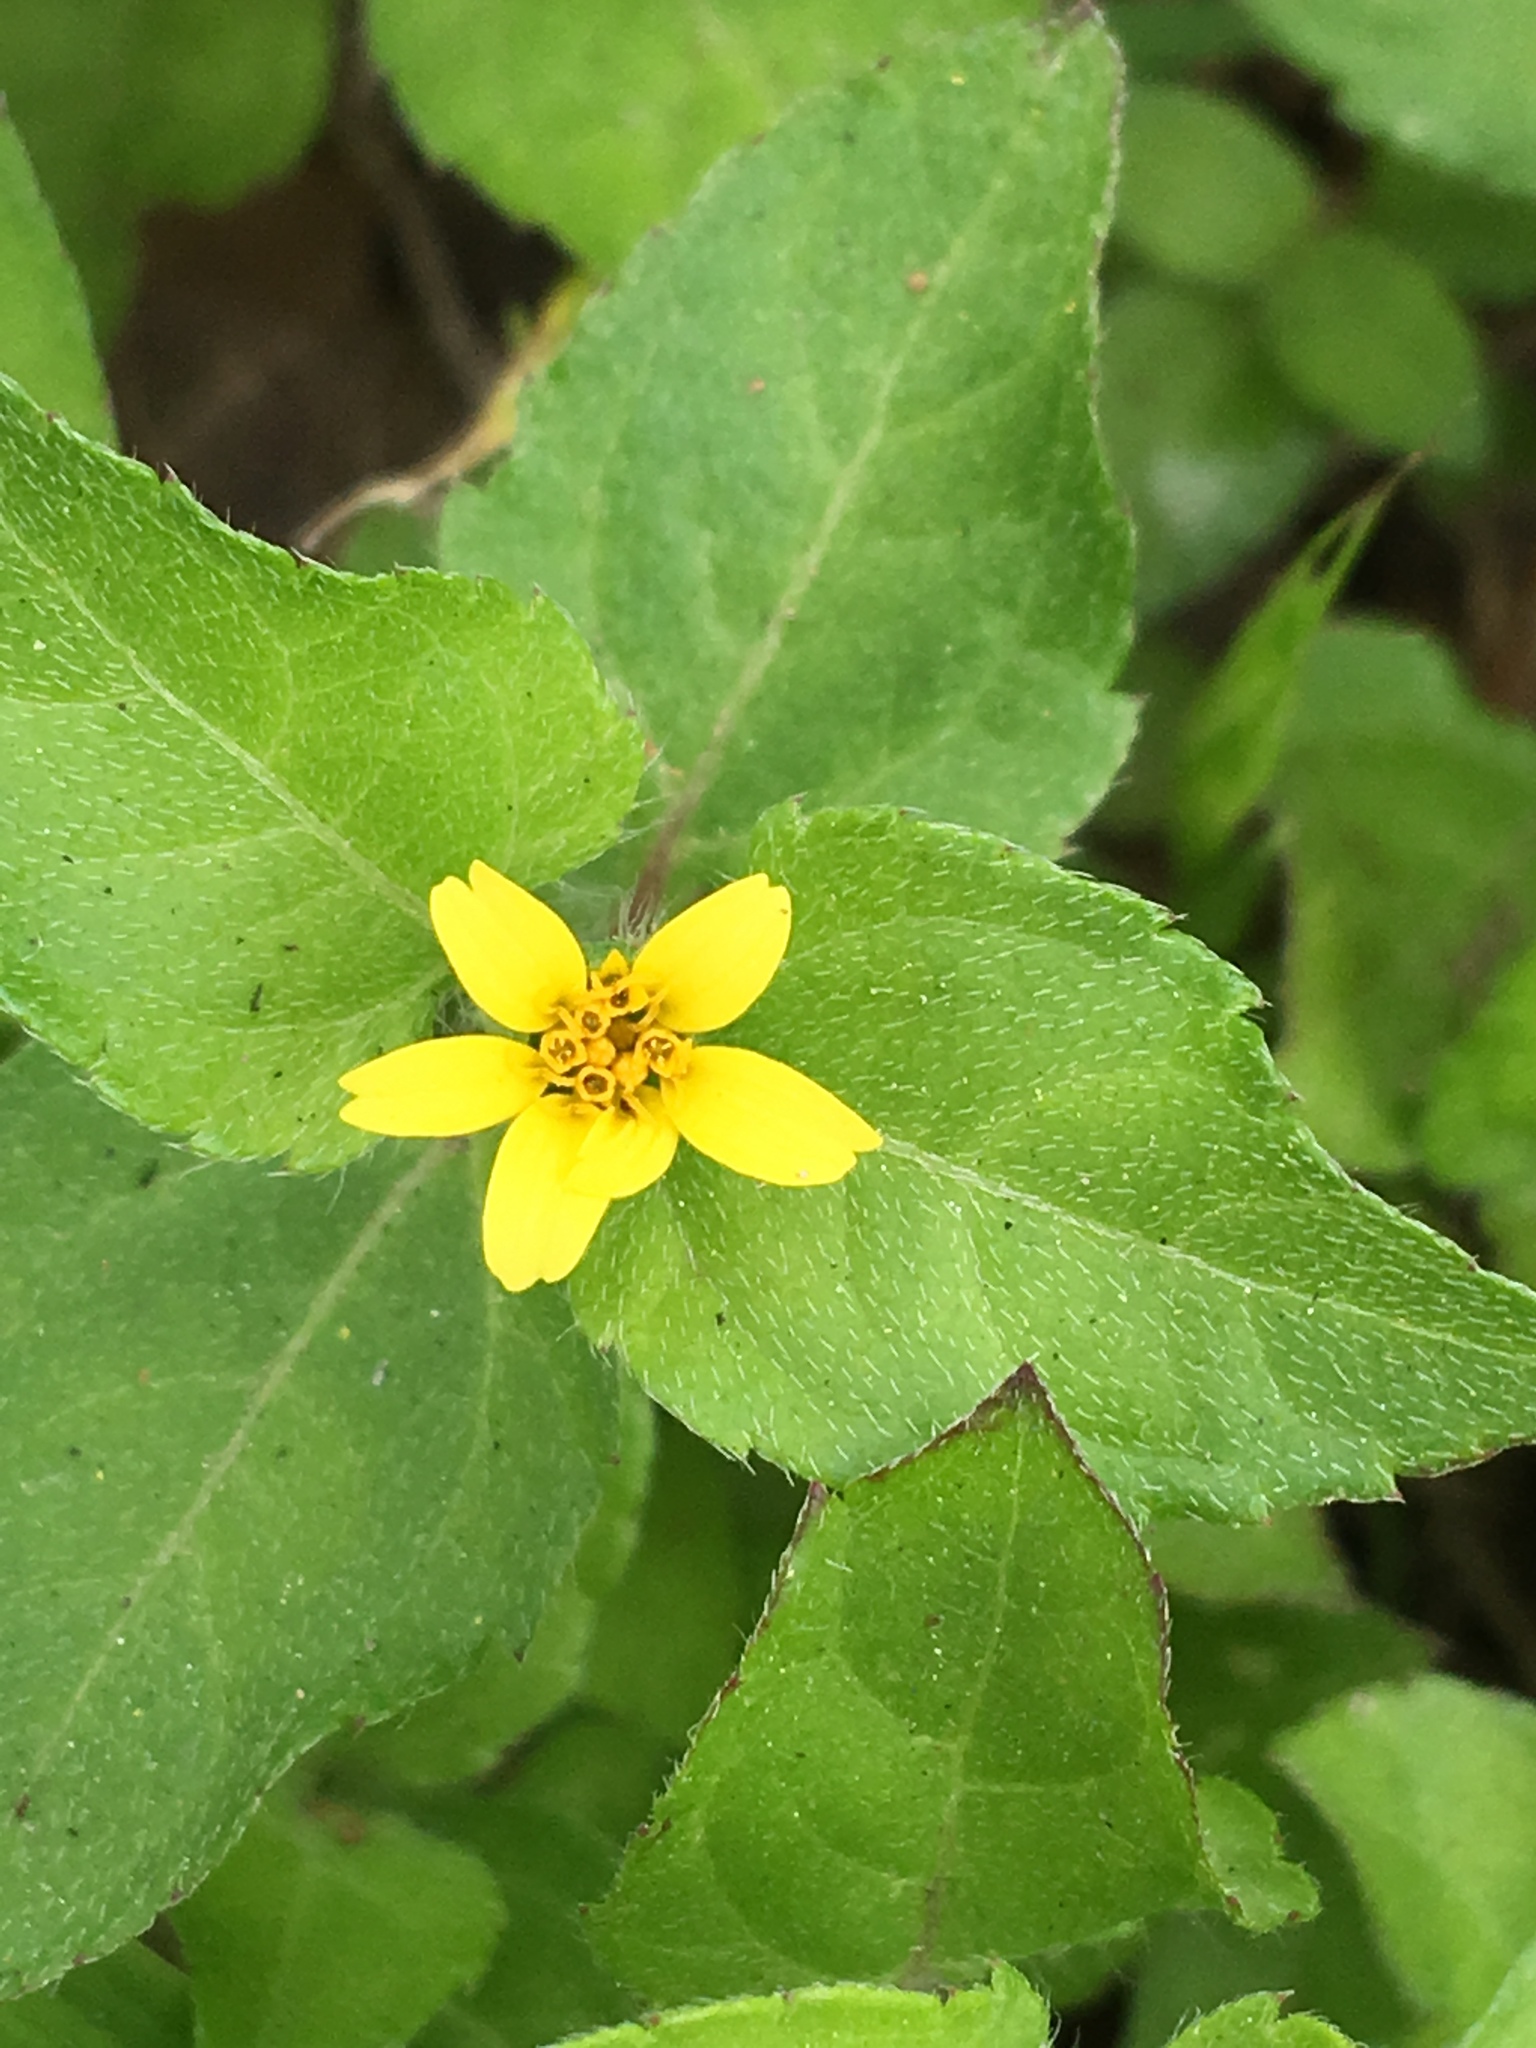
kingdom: Plantae
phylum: Tracheophyta
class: Magnoliopsida
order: Asterales
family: Asteraceae
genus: Calyptocarpus
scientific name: Calyptocarpus vialis
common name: Straggler daisy
